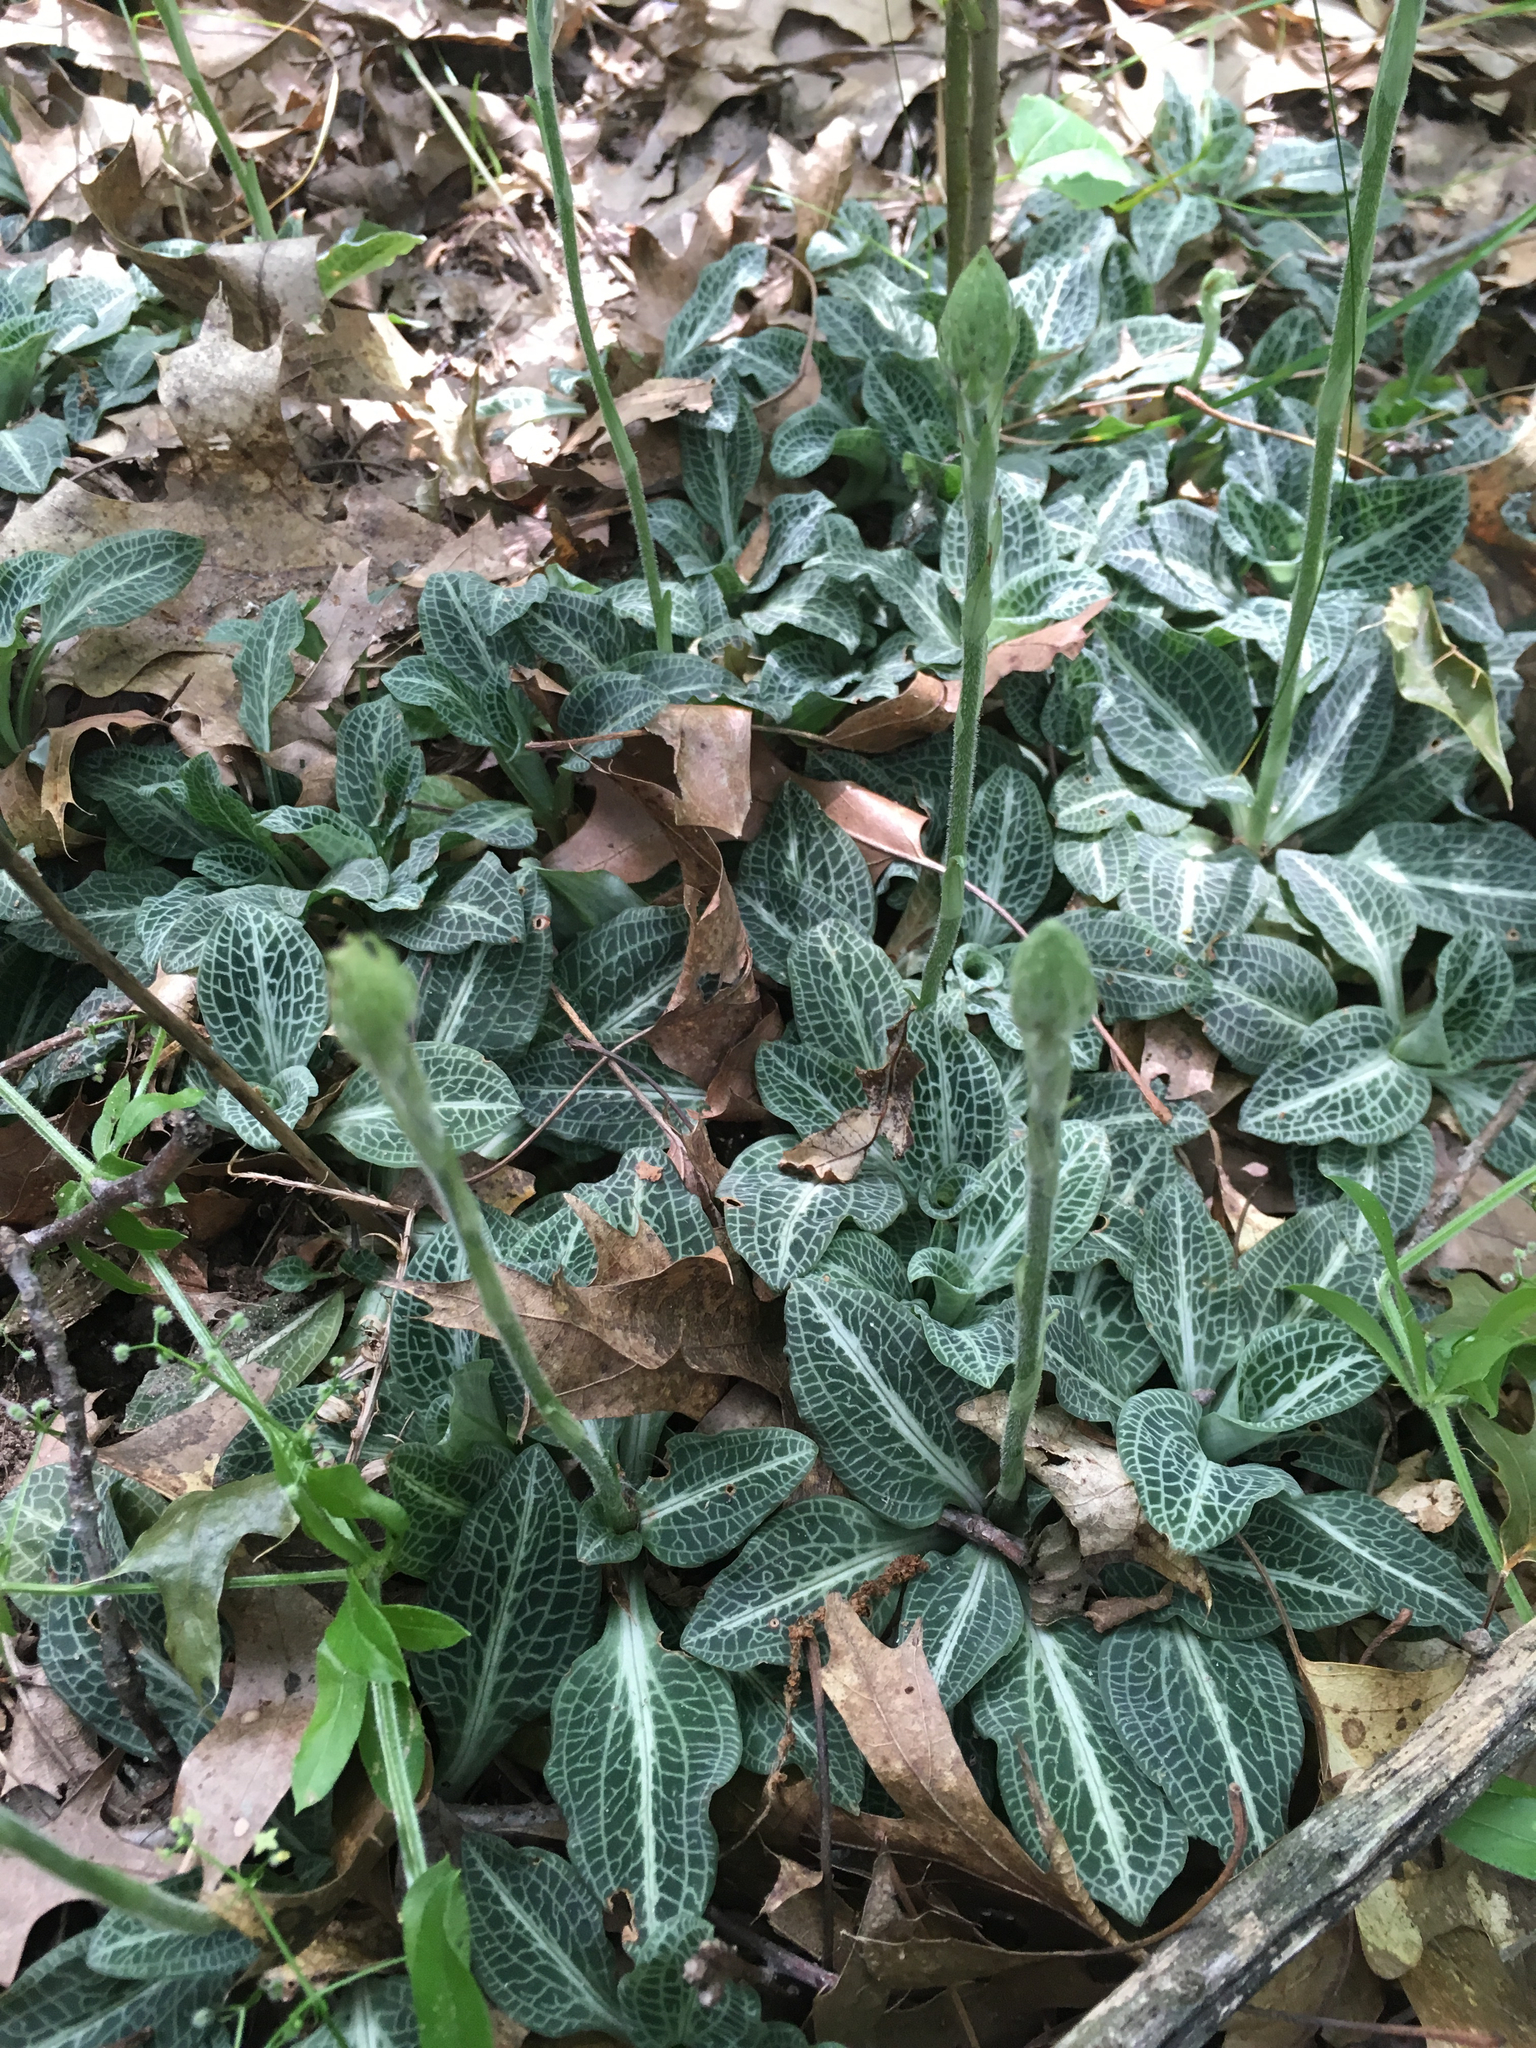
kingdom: Plantae
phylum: Tracheophyta
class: Liliopsida
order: Asparagales
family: Orchidaceae
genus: Goodyera
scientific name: Goodyera pubescens
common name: Downy rattlesnake-plantain
